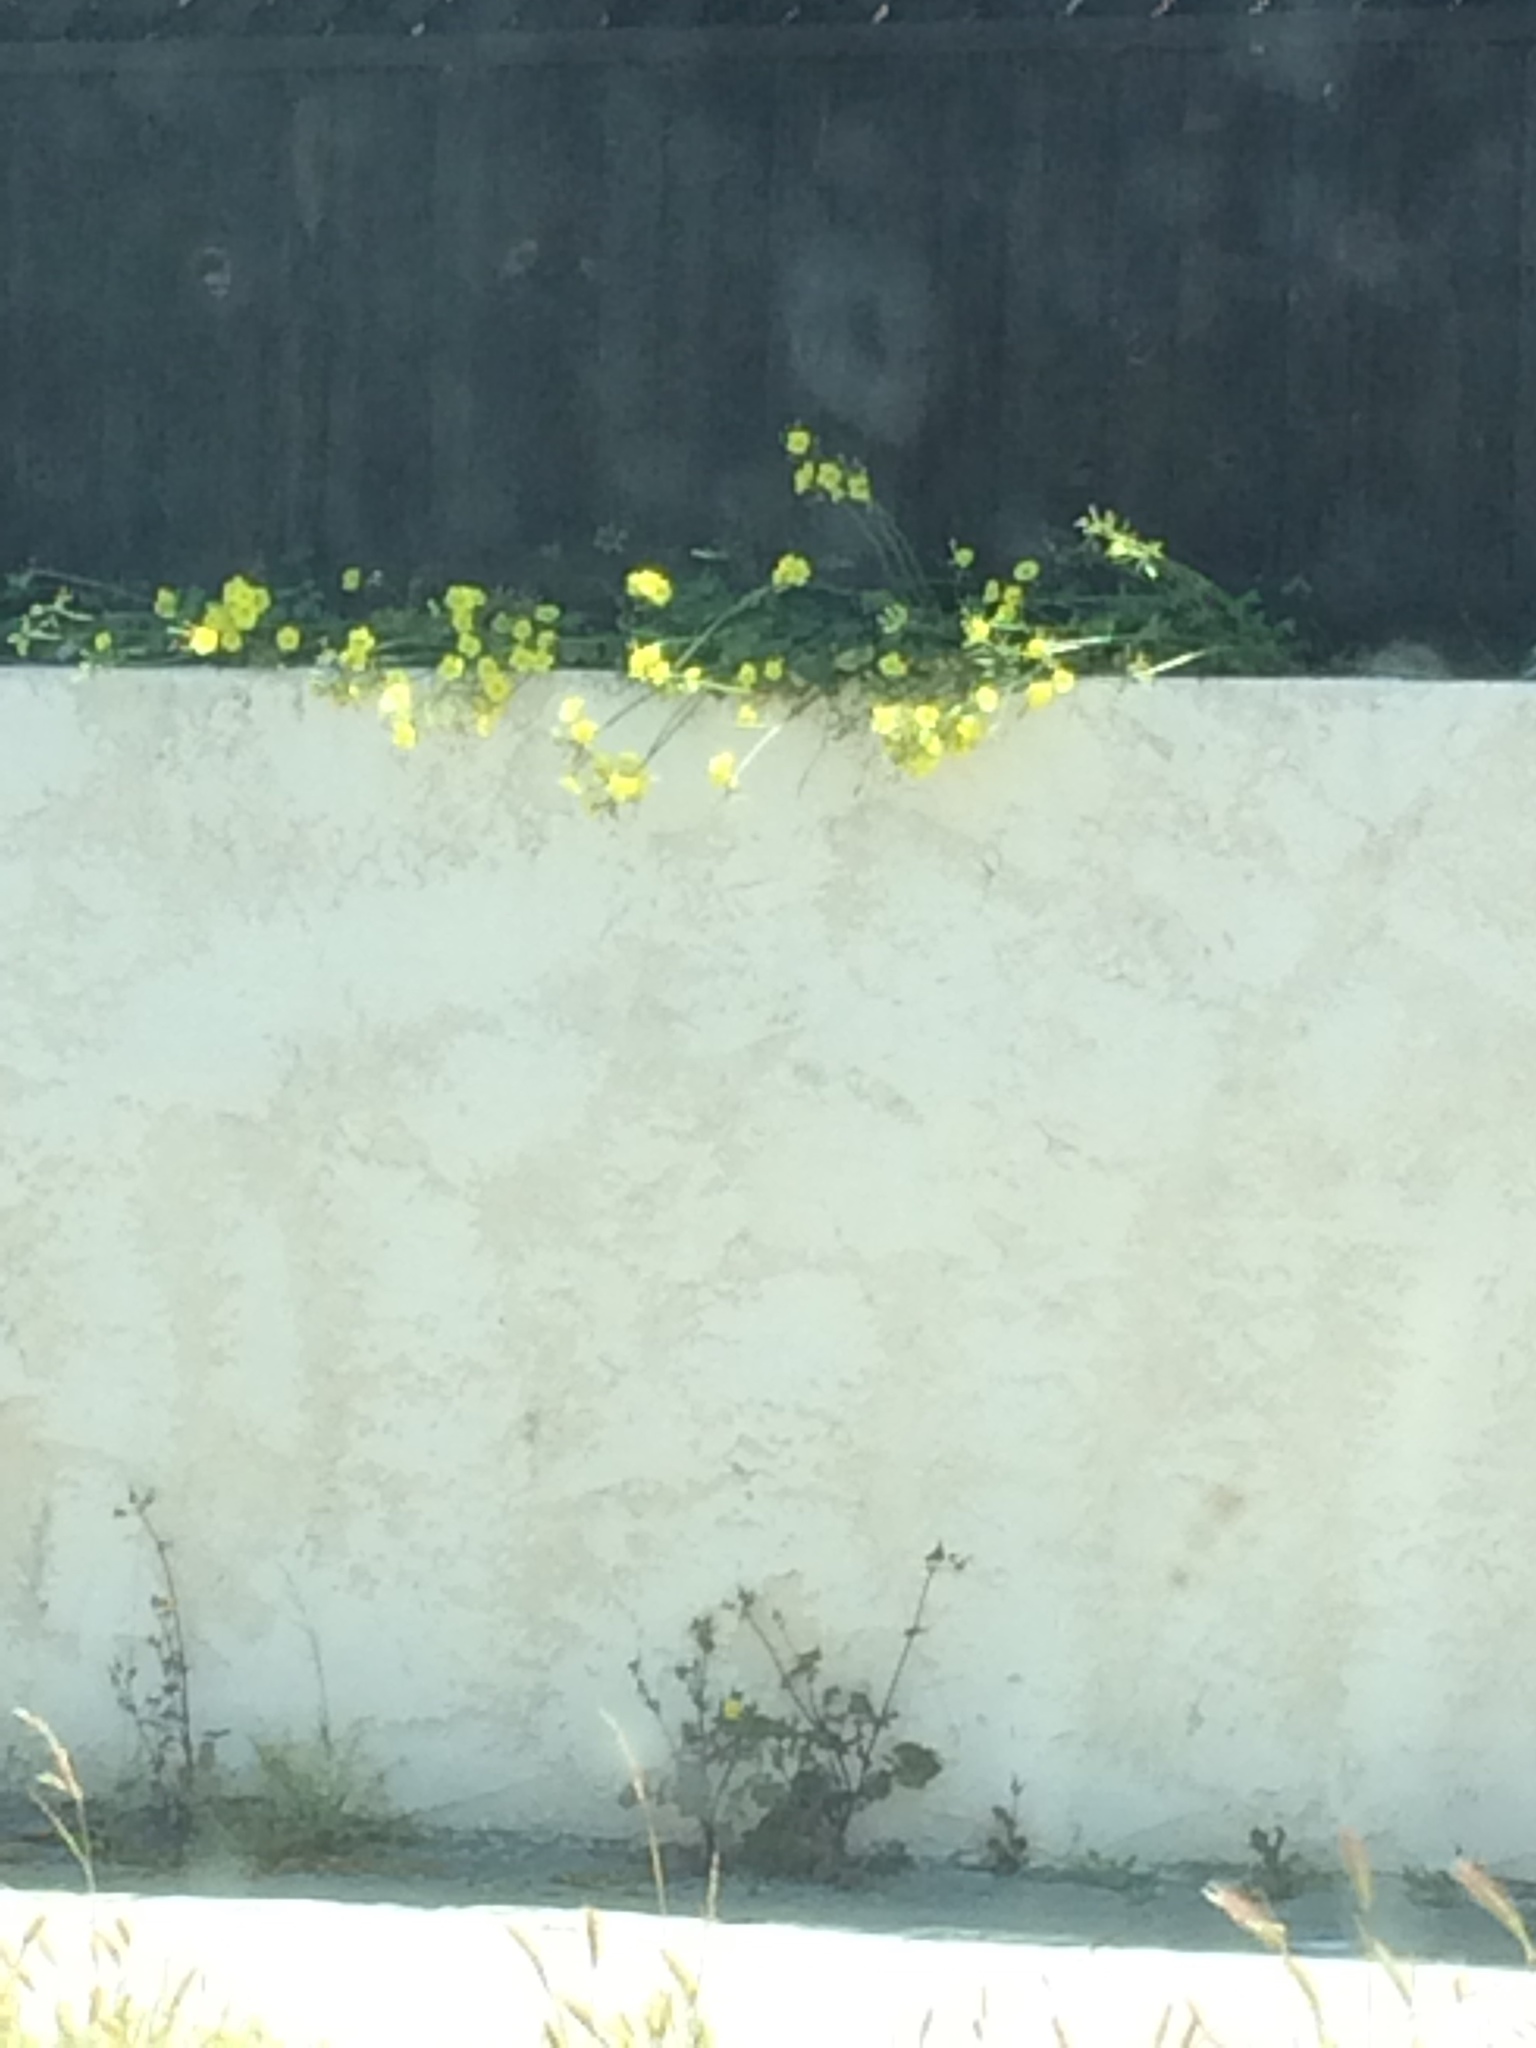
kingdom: Plantae
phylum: Tracheophyta
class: Magnoliopsida
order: Oxalidales
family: Oxalidaceae
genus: Oxalis
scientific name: Oxalis pes-caprae
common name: Bermuda-buttercup
